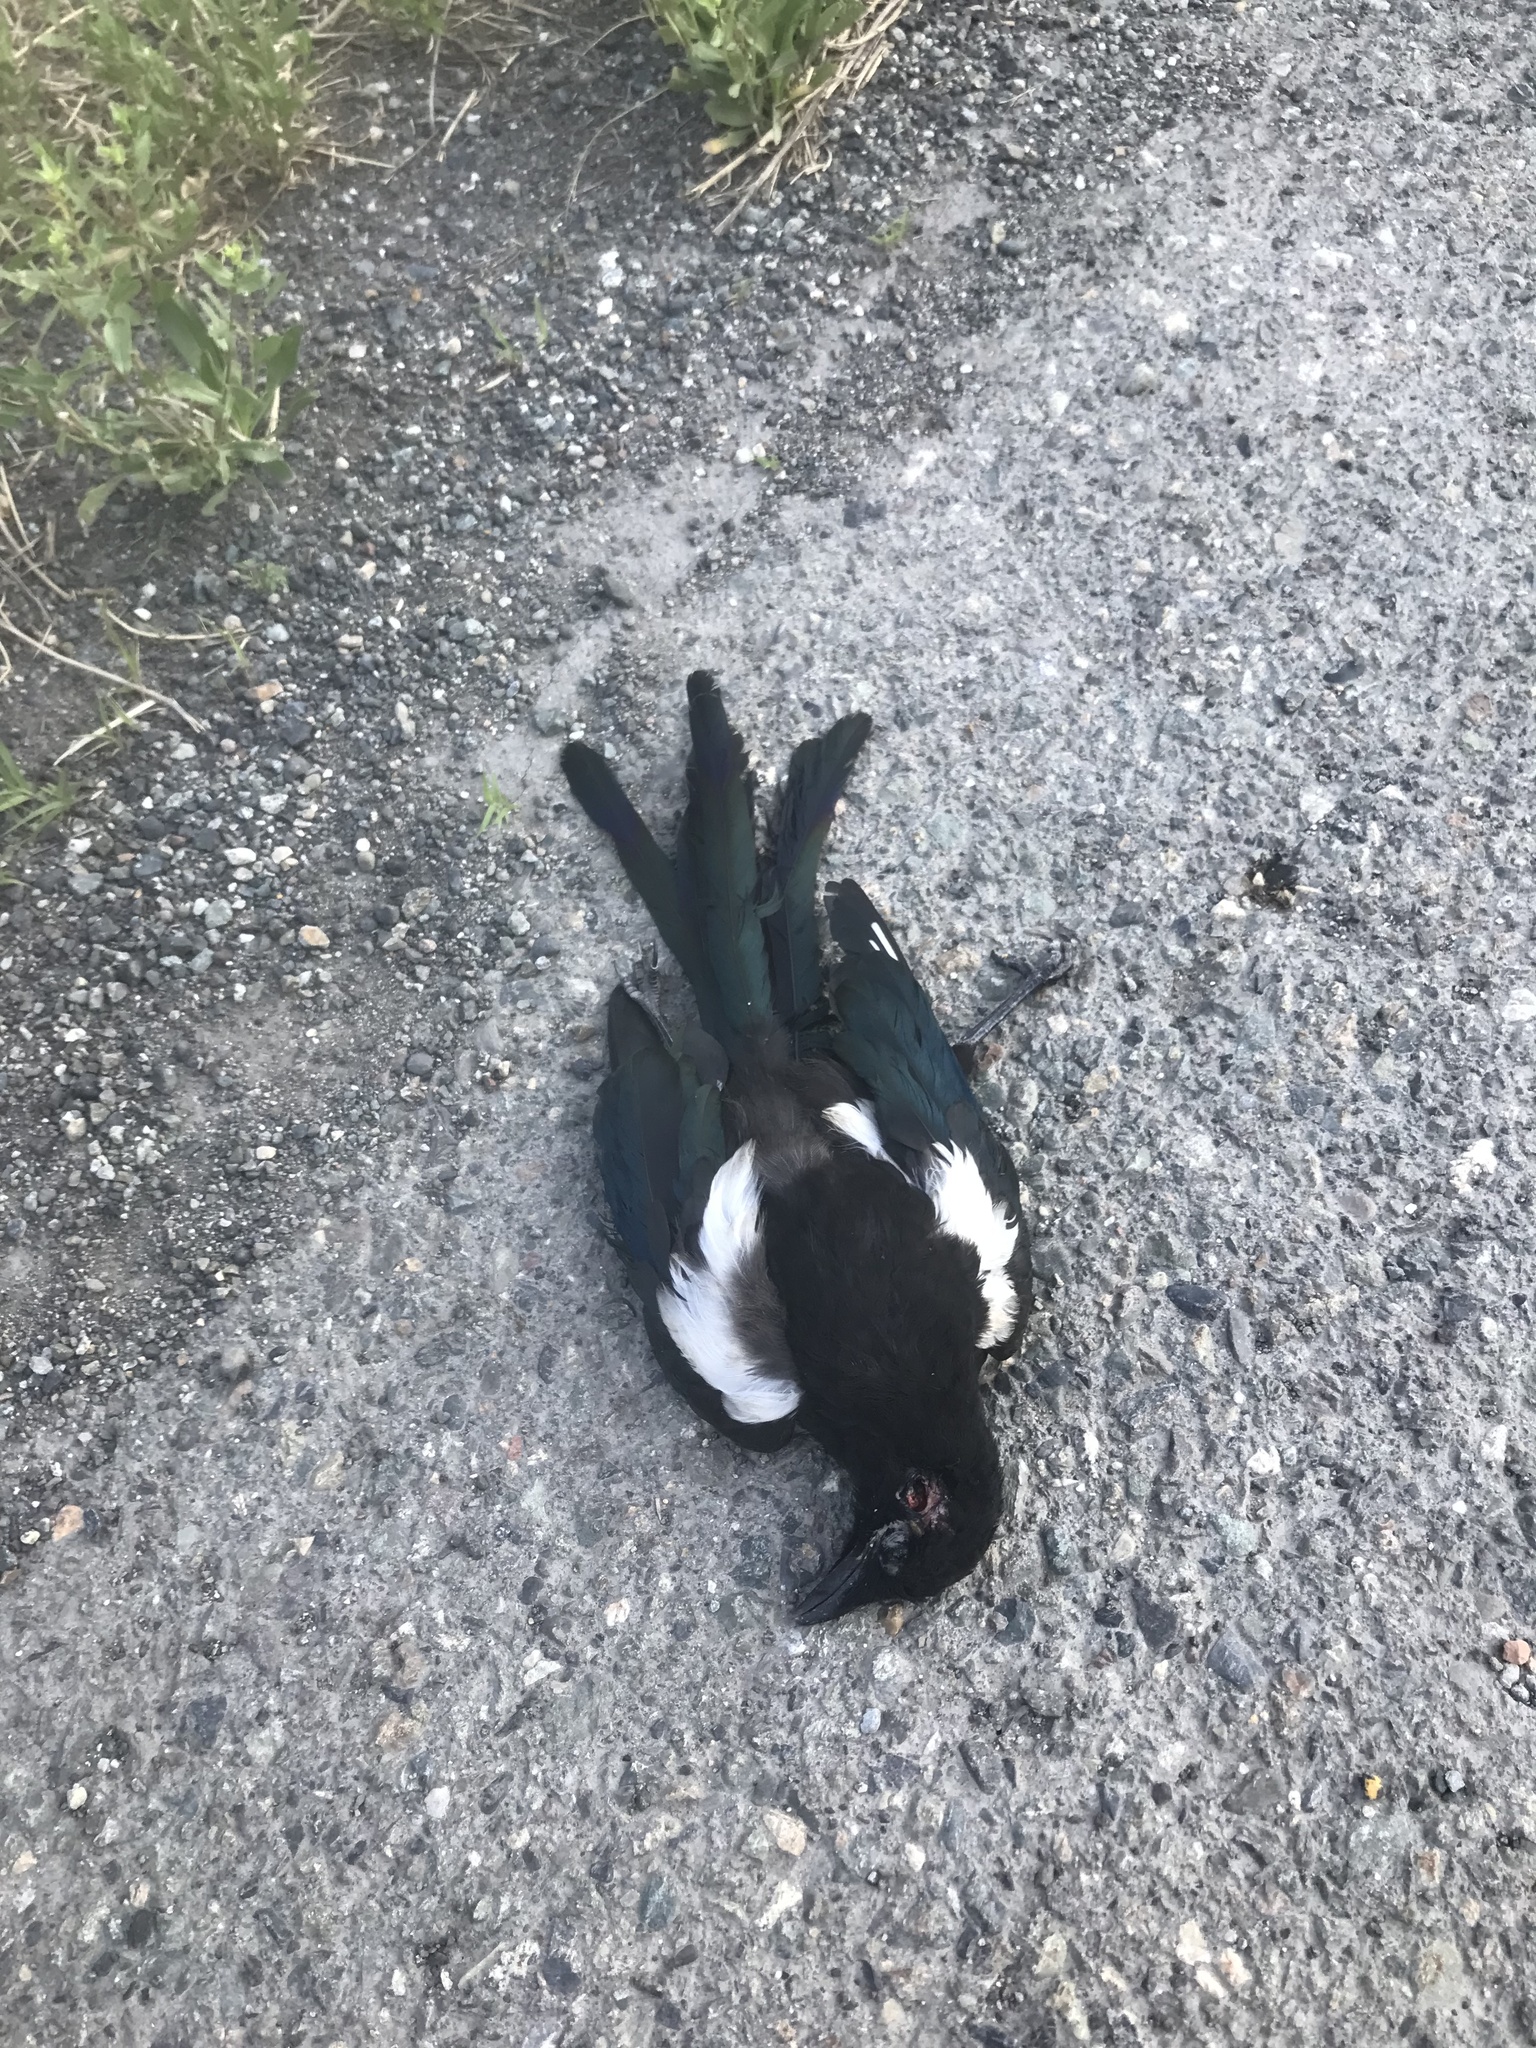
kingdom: Animalia
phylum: Chordata
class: Aves
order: Passeriformes
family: Corvidae
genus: Pica
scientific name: Pica hudsonia
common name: Black-billed magpie
